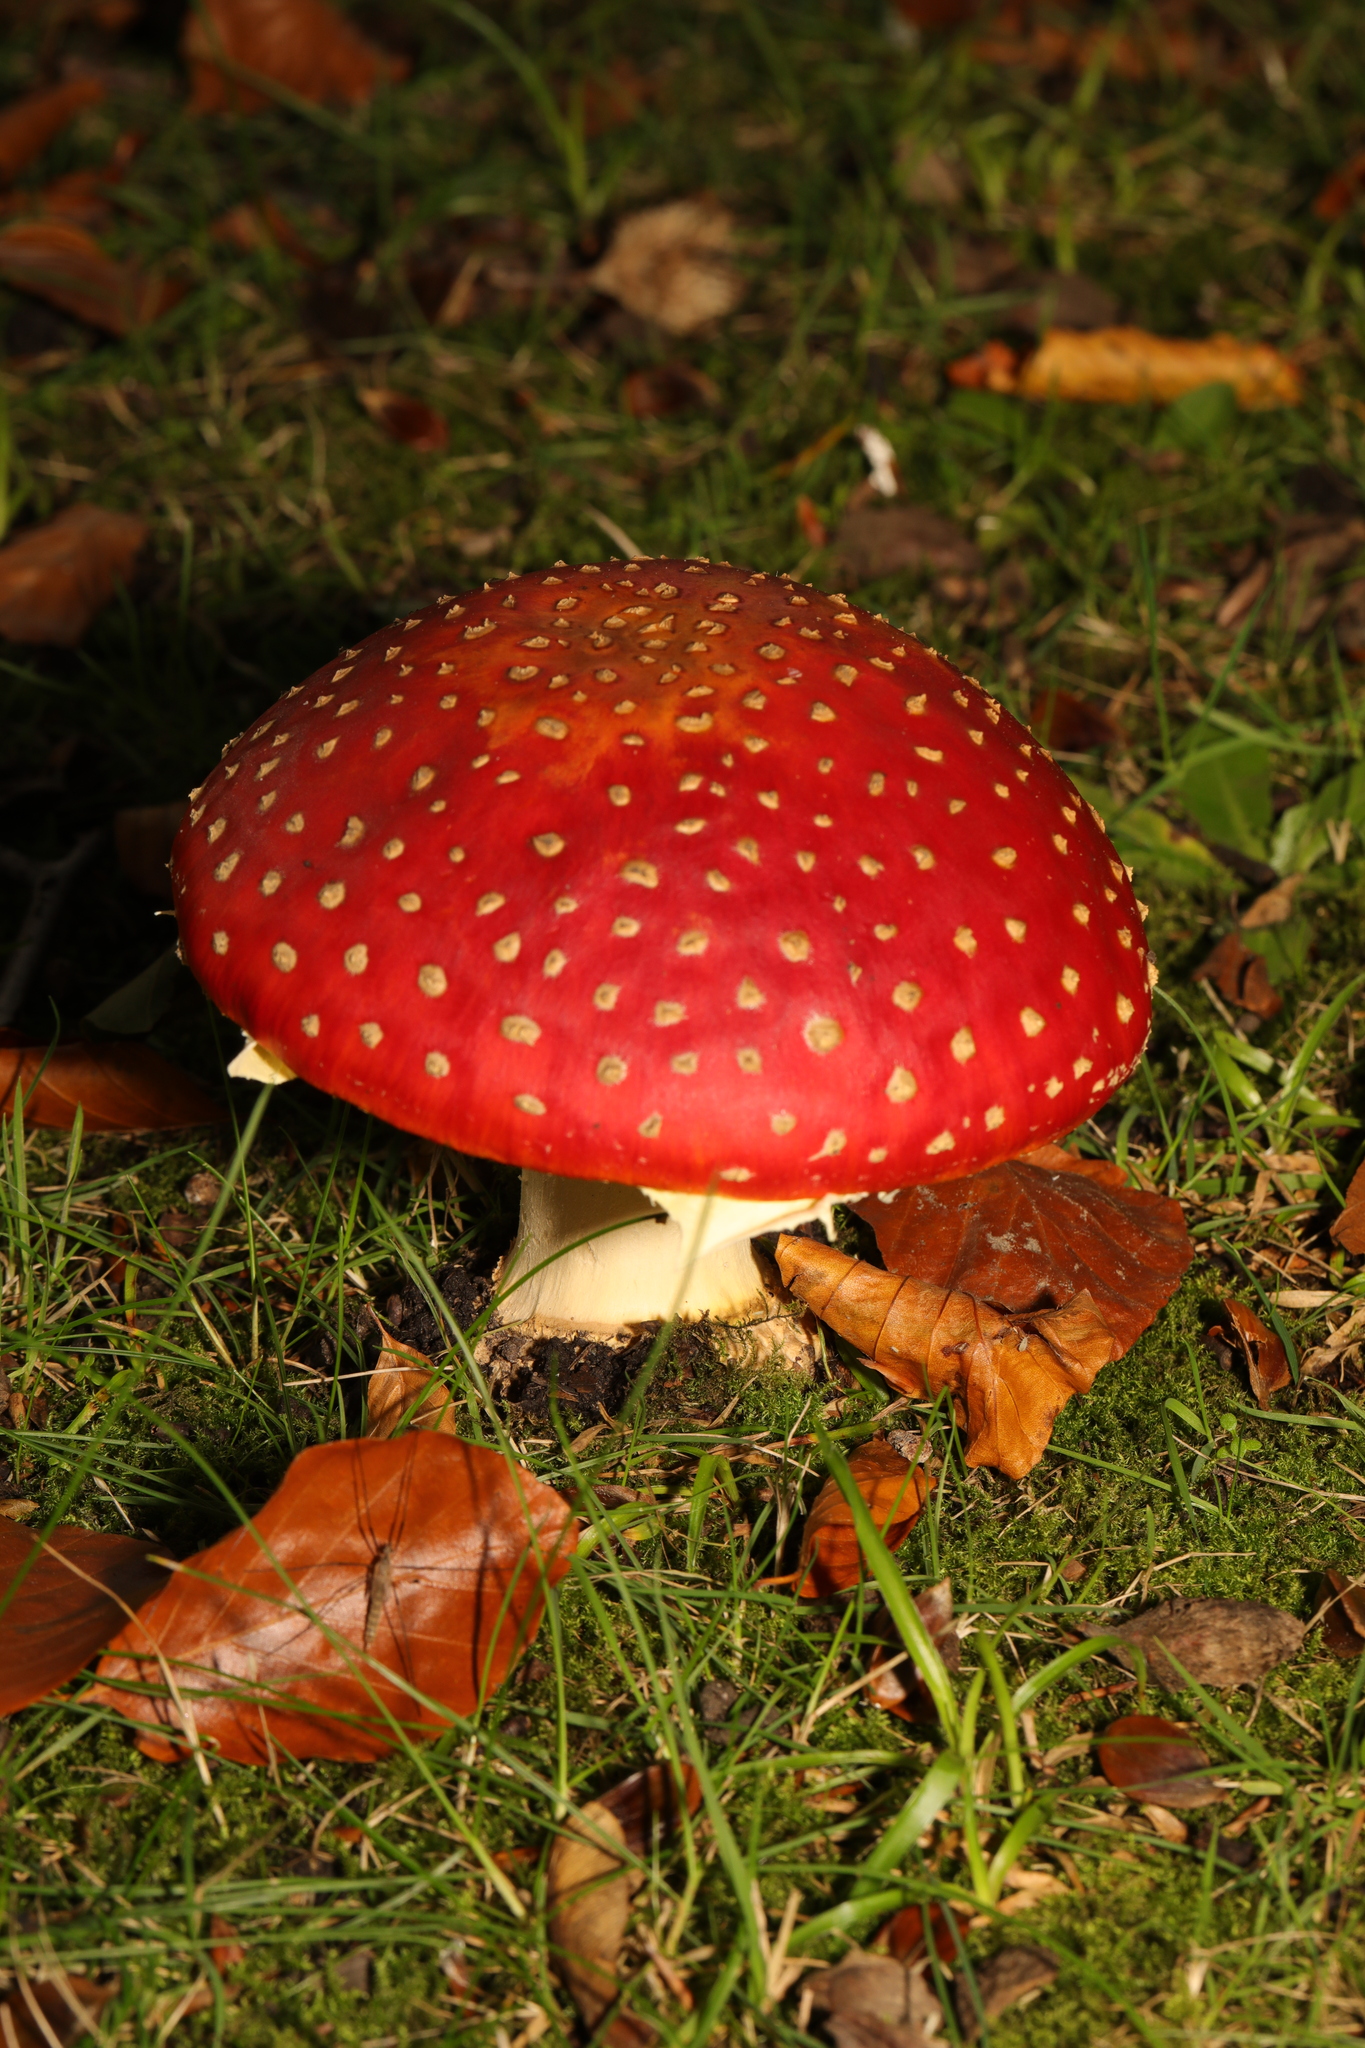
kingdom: Fungi
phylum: Basidiomycota
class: Agaricomycetes
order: Agaricales
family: Amanitaceae
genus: Amanita
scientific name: Amanita muscaria
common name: Fly agaric
